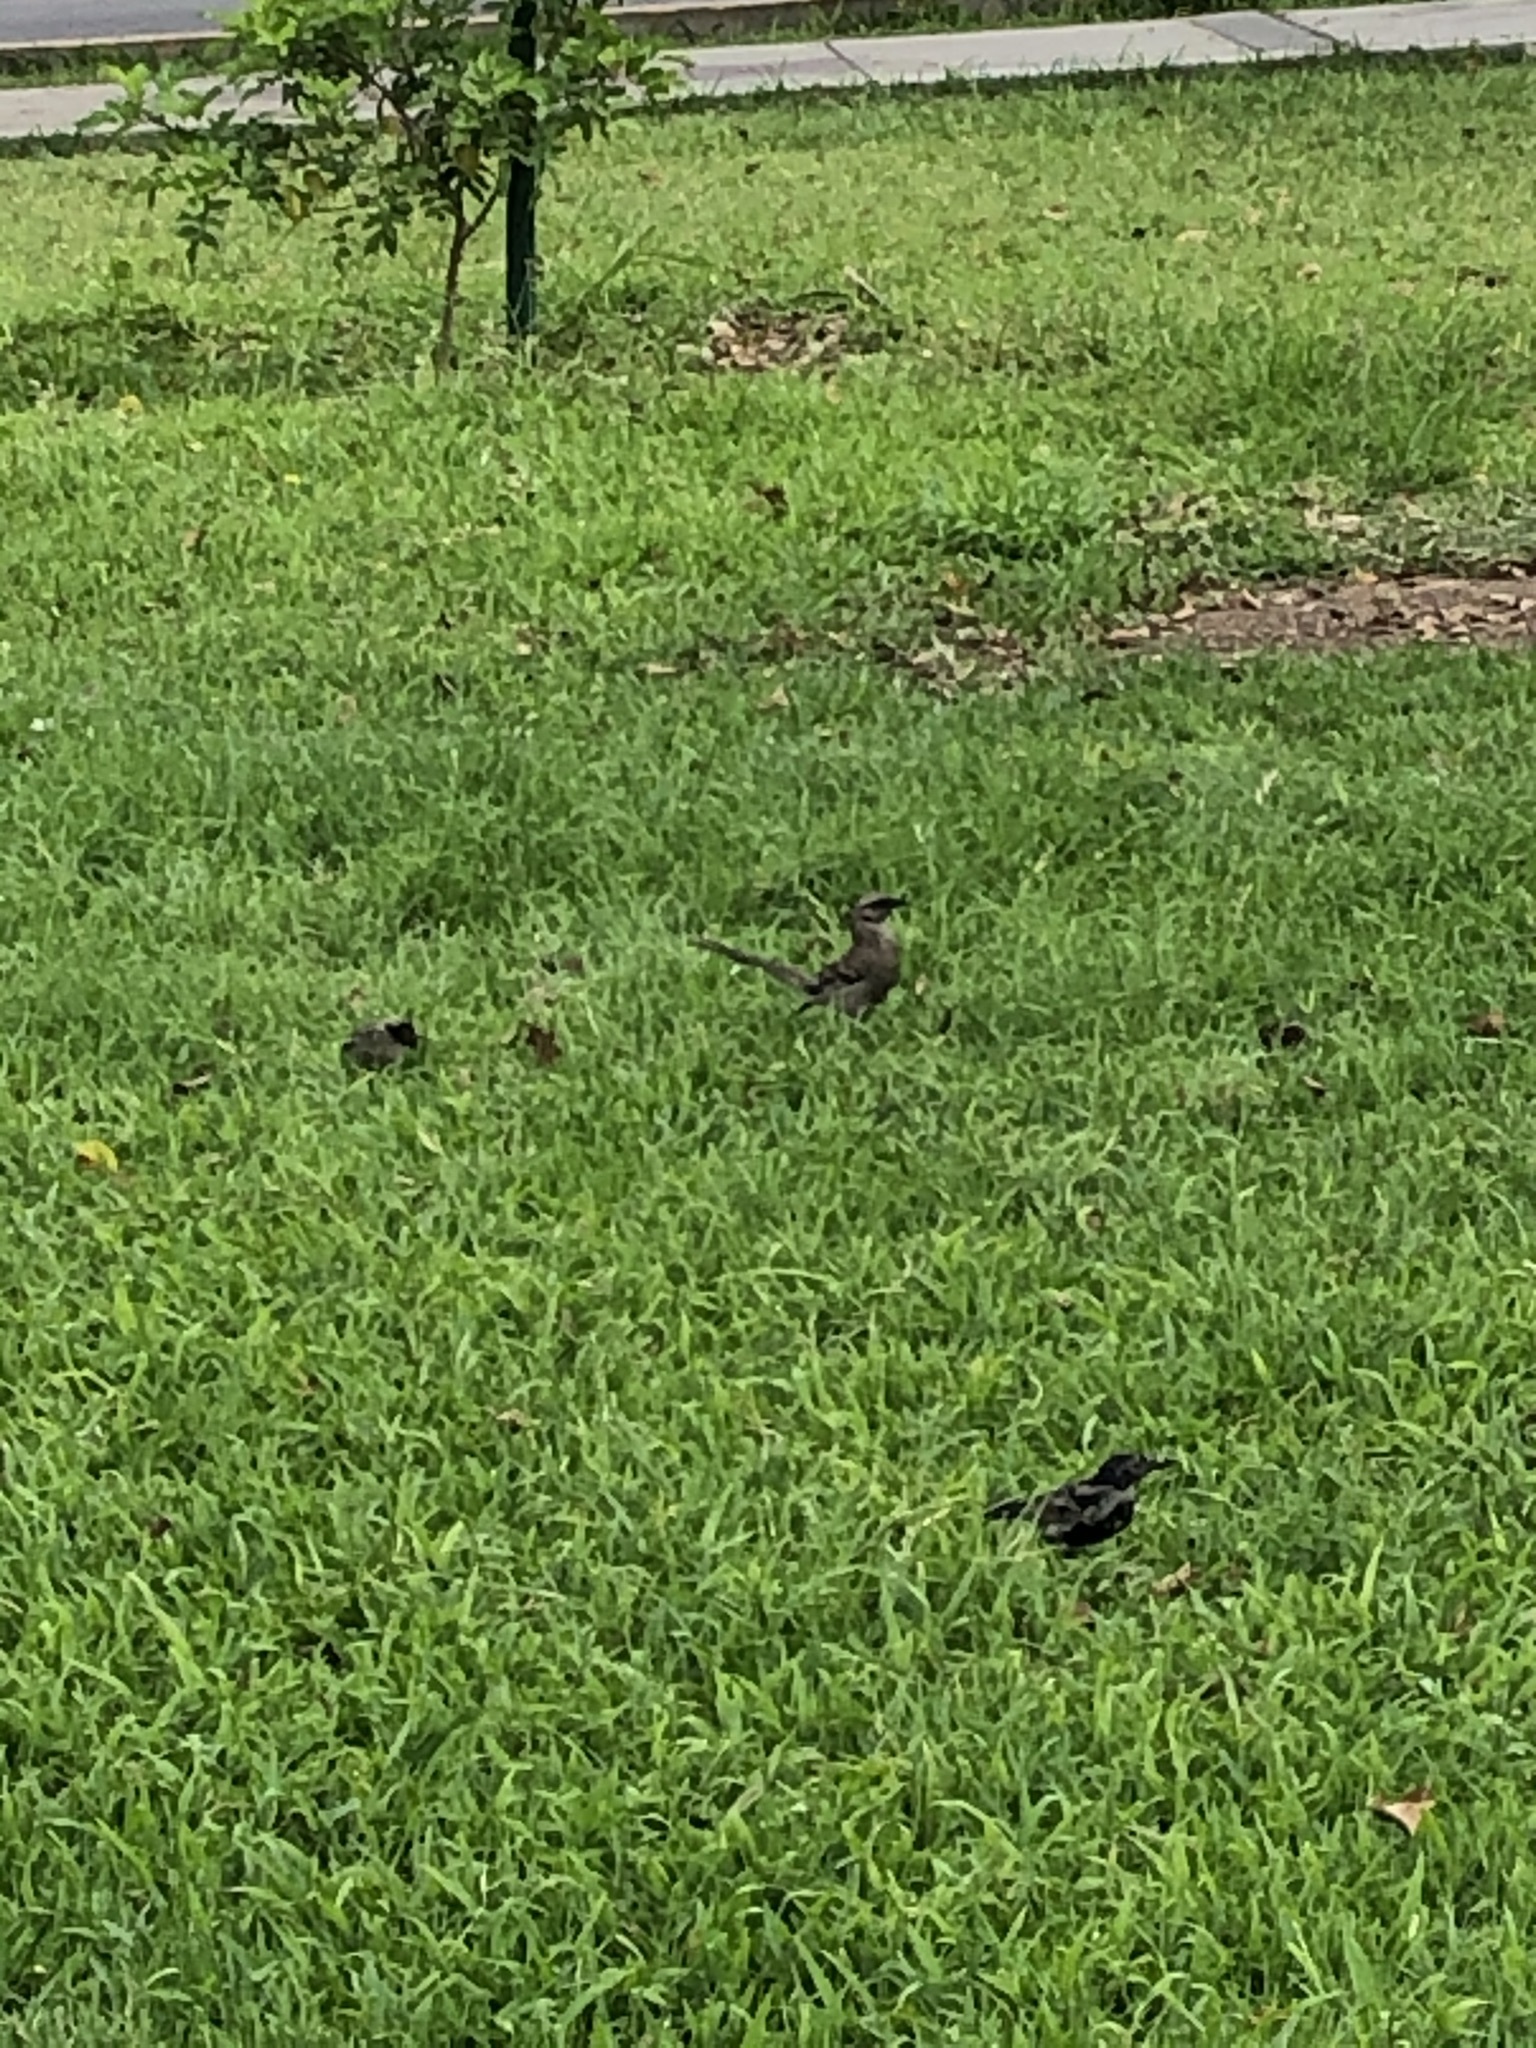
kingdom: Animalia
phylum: Chordata
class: Aves
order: Passeriformes
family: Mimidae
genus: Mimus
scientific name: Mimus longicaudatus
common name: Long-tailed mockingbird
